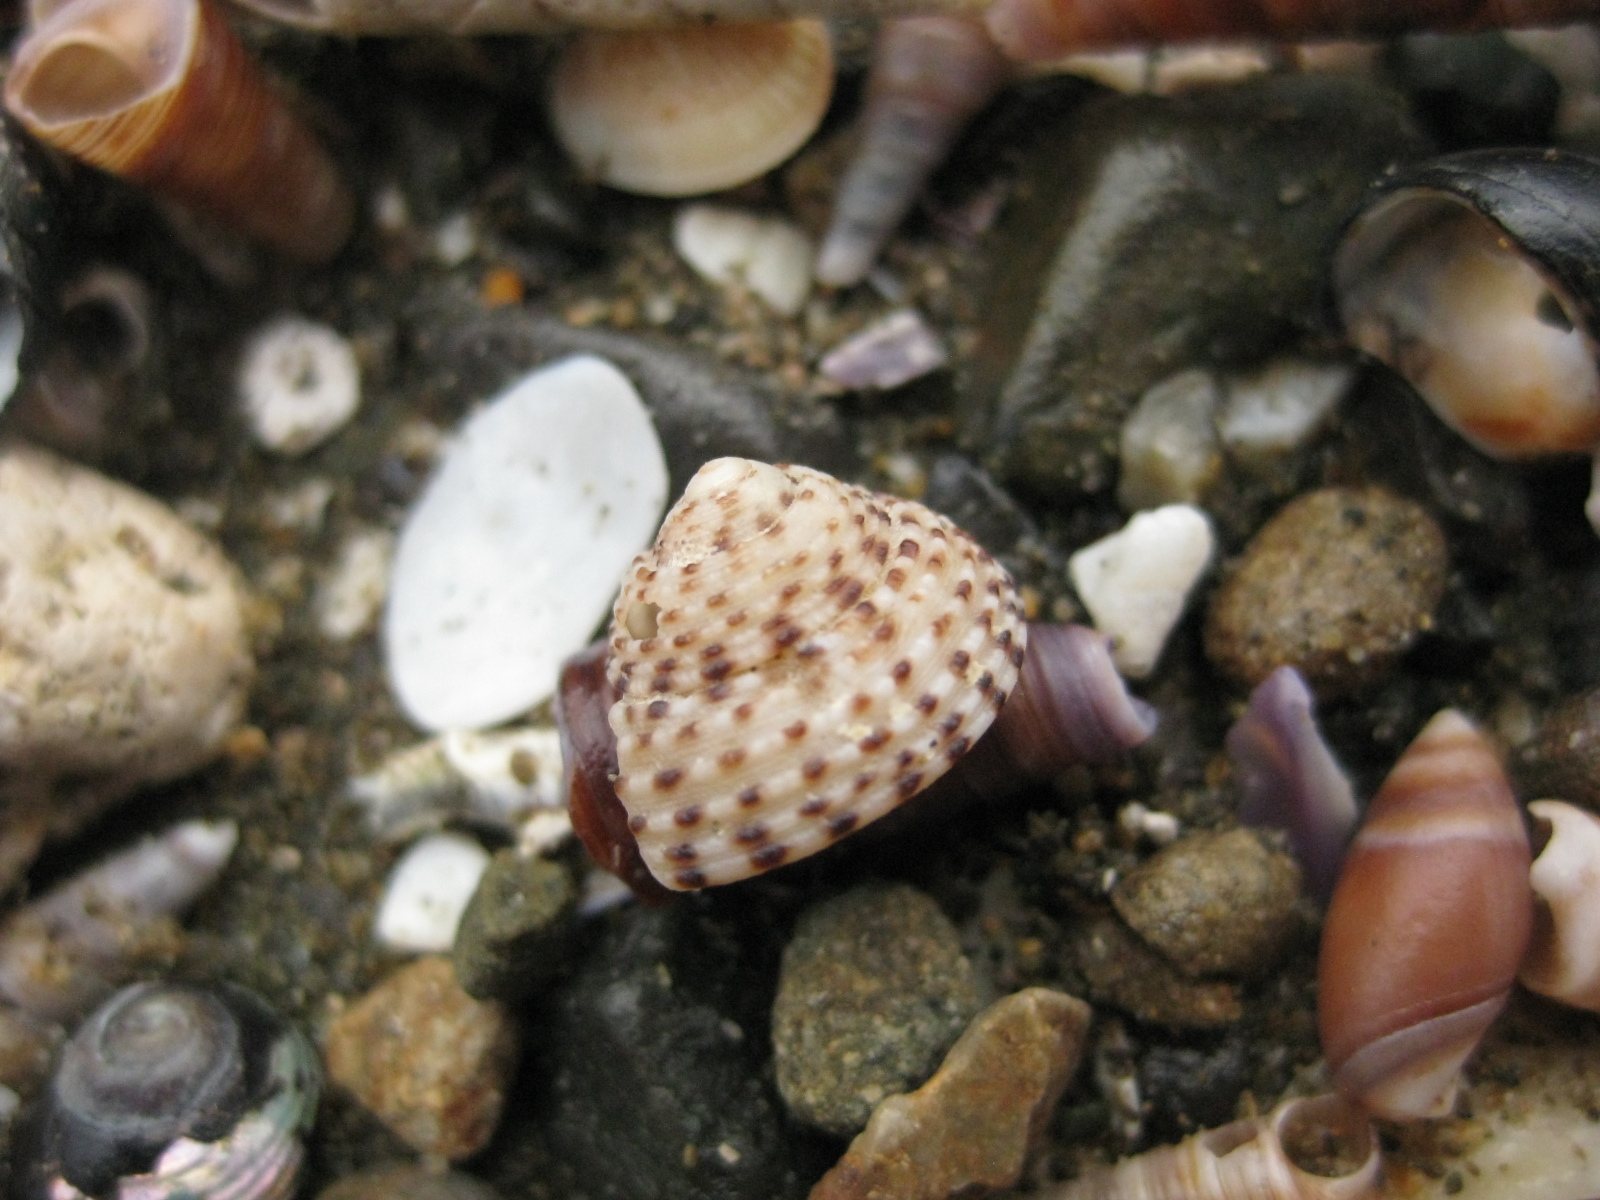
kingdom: Animalia
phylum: Mollusca
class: Gastropoda
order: Trochida
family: Trochidae
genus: Coelotrochus
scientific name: Coelotrochus tiaratus
